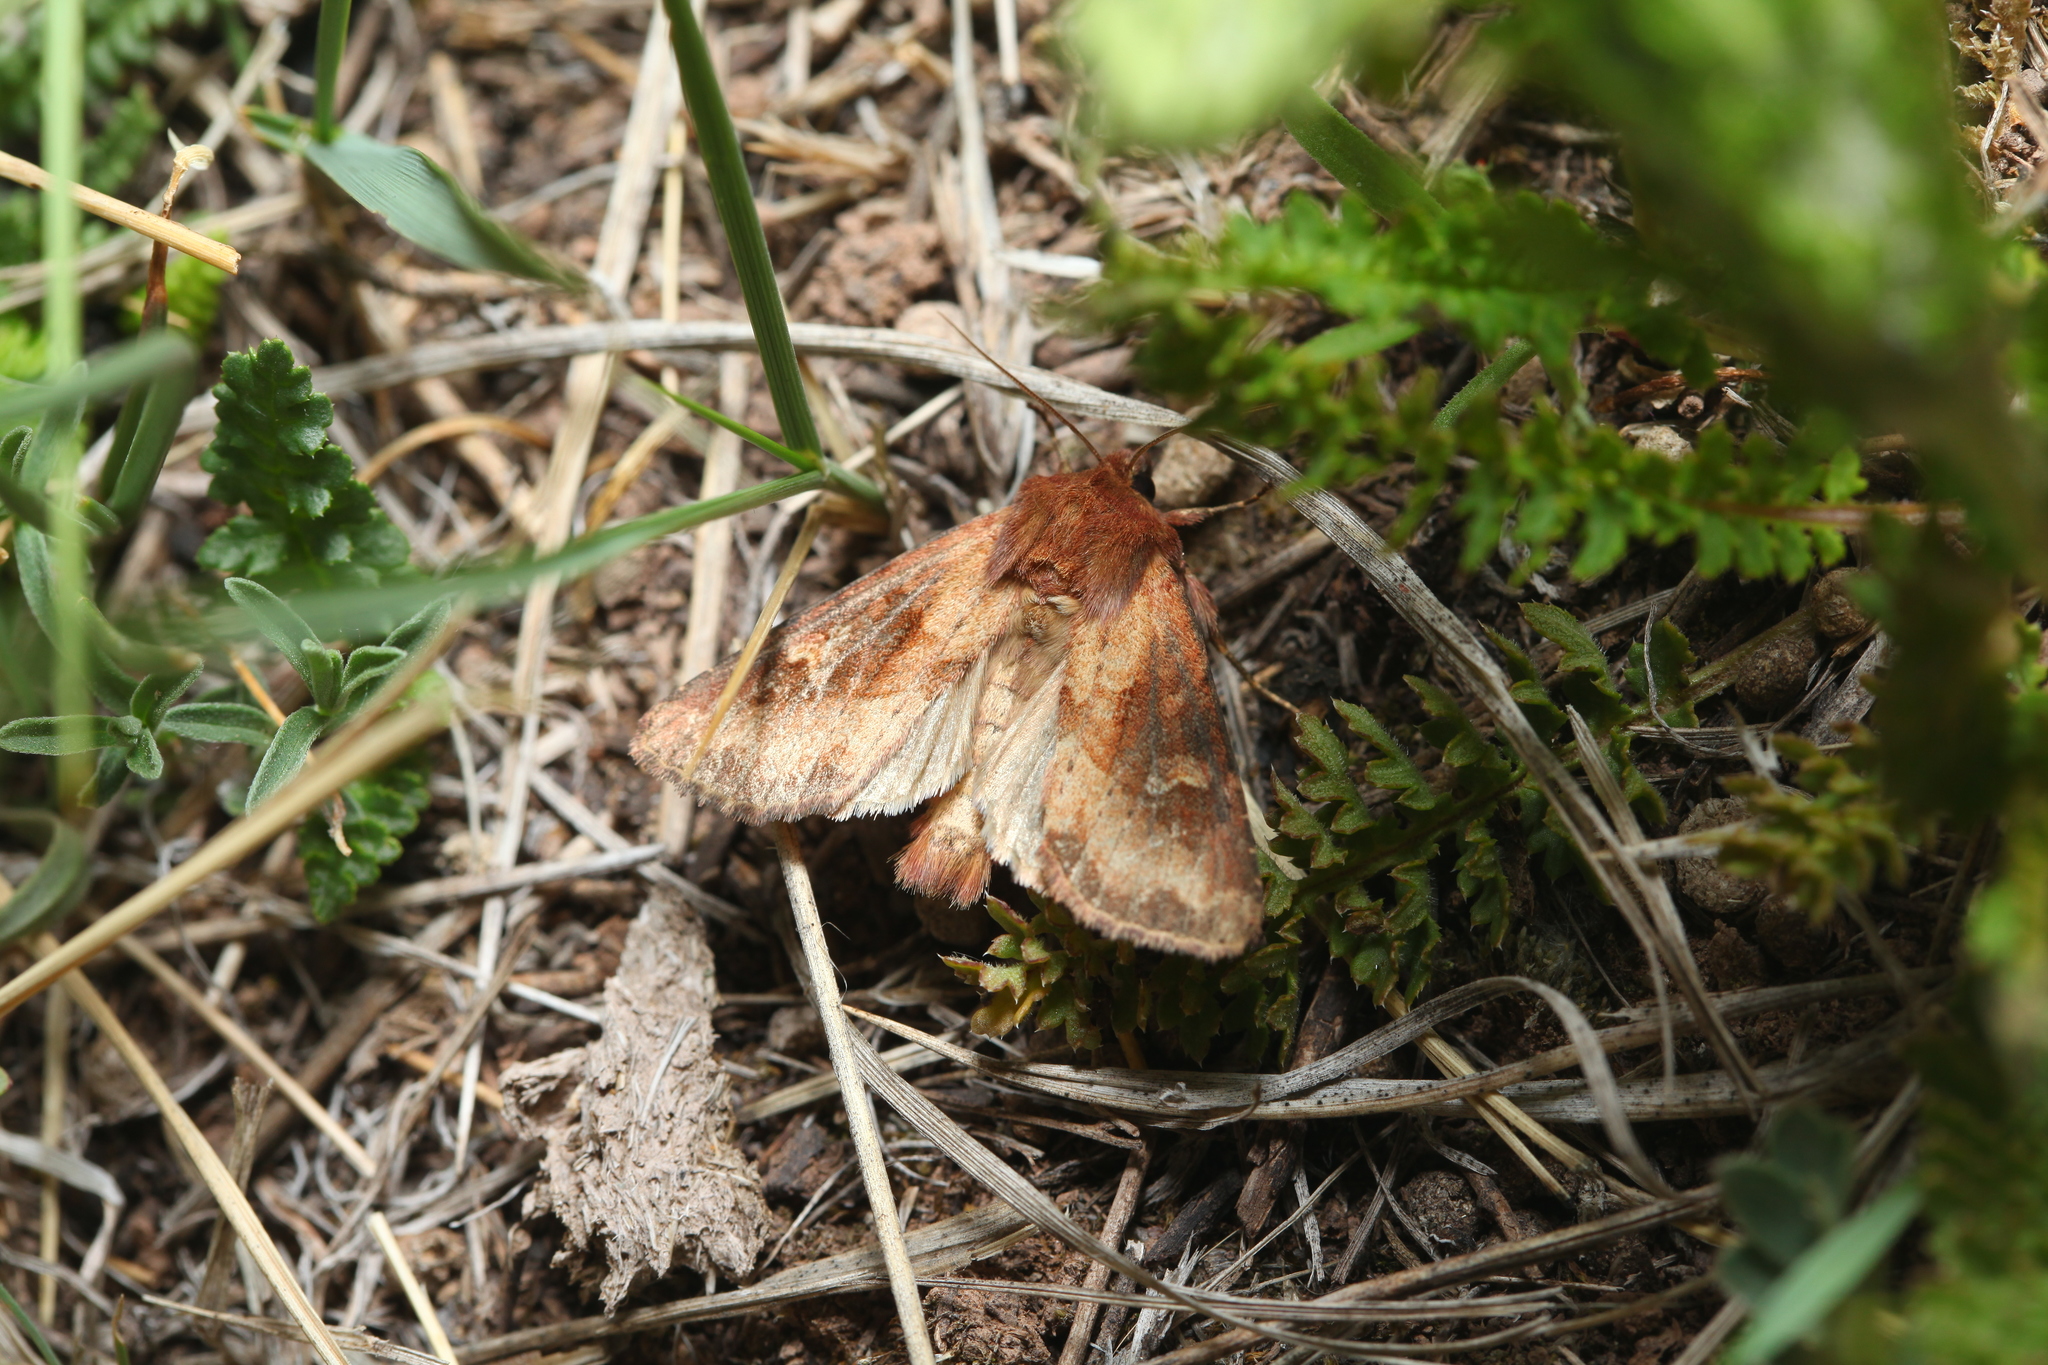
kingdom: Animalia
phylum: Arthropoda
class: Insecta
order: Lepidoptera
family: Noctuidae
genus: Resapamea
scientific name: Resapamea hedeni
